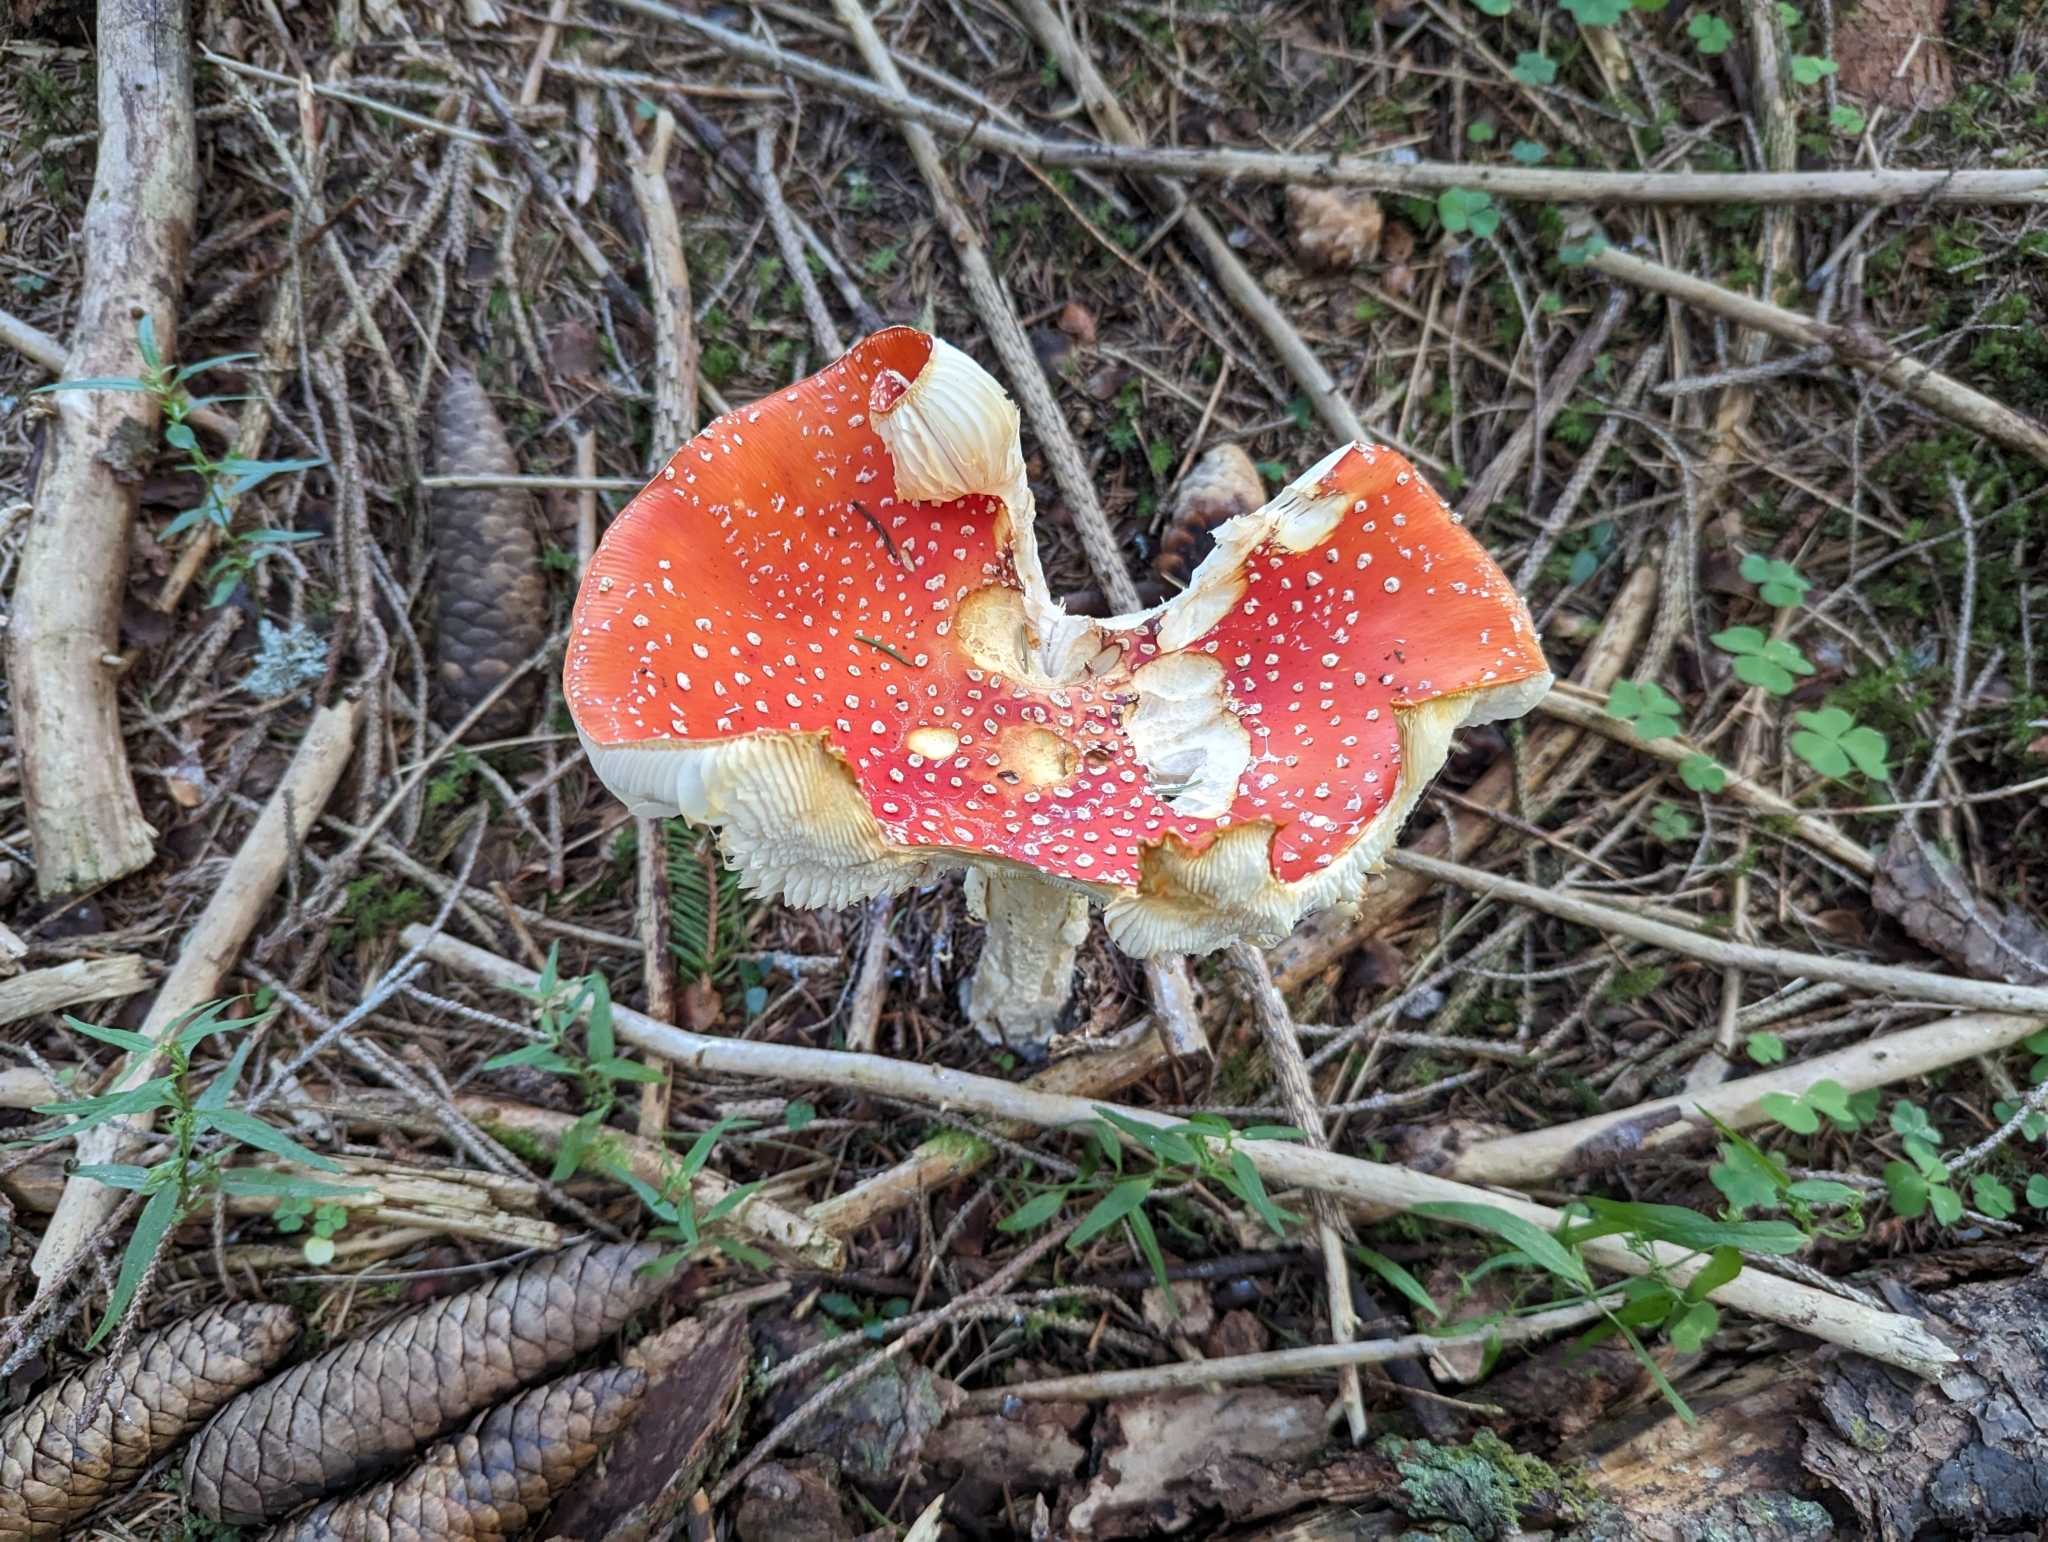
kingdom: Fungi
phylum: Basidiomycota
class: Agaricomycetes
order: Agaricales
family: Amanitaceae
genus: Amanita
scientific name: Amanita muscaria
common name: Fly agaric
